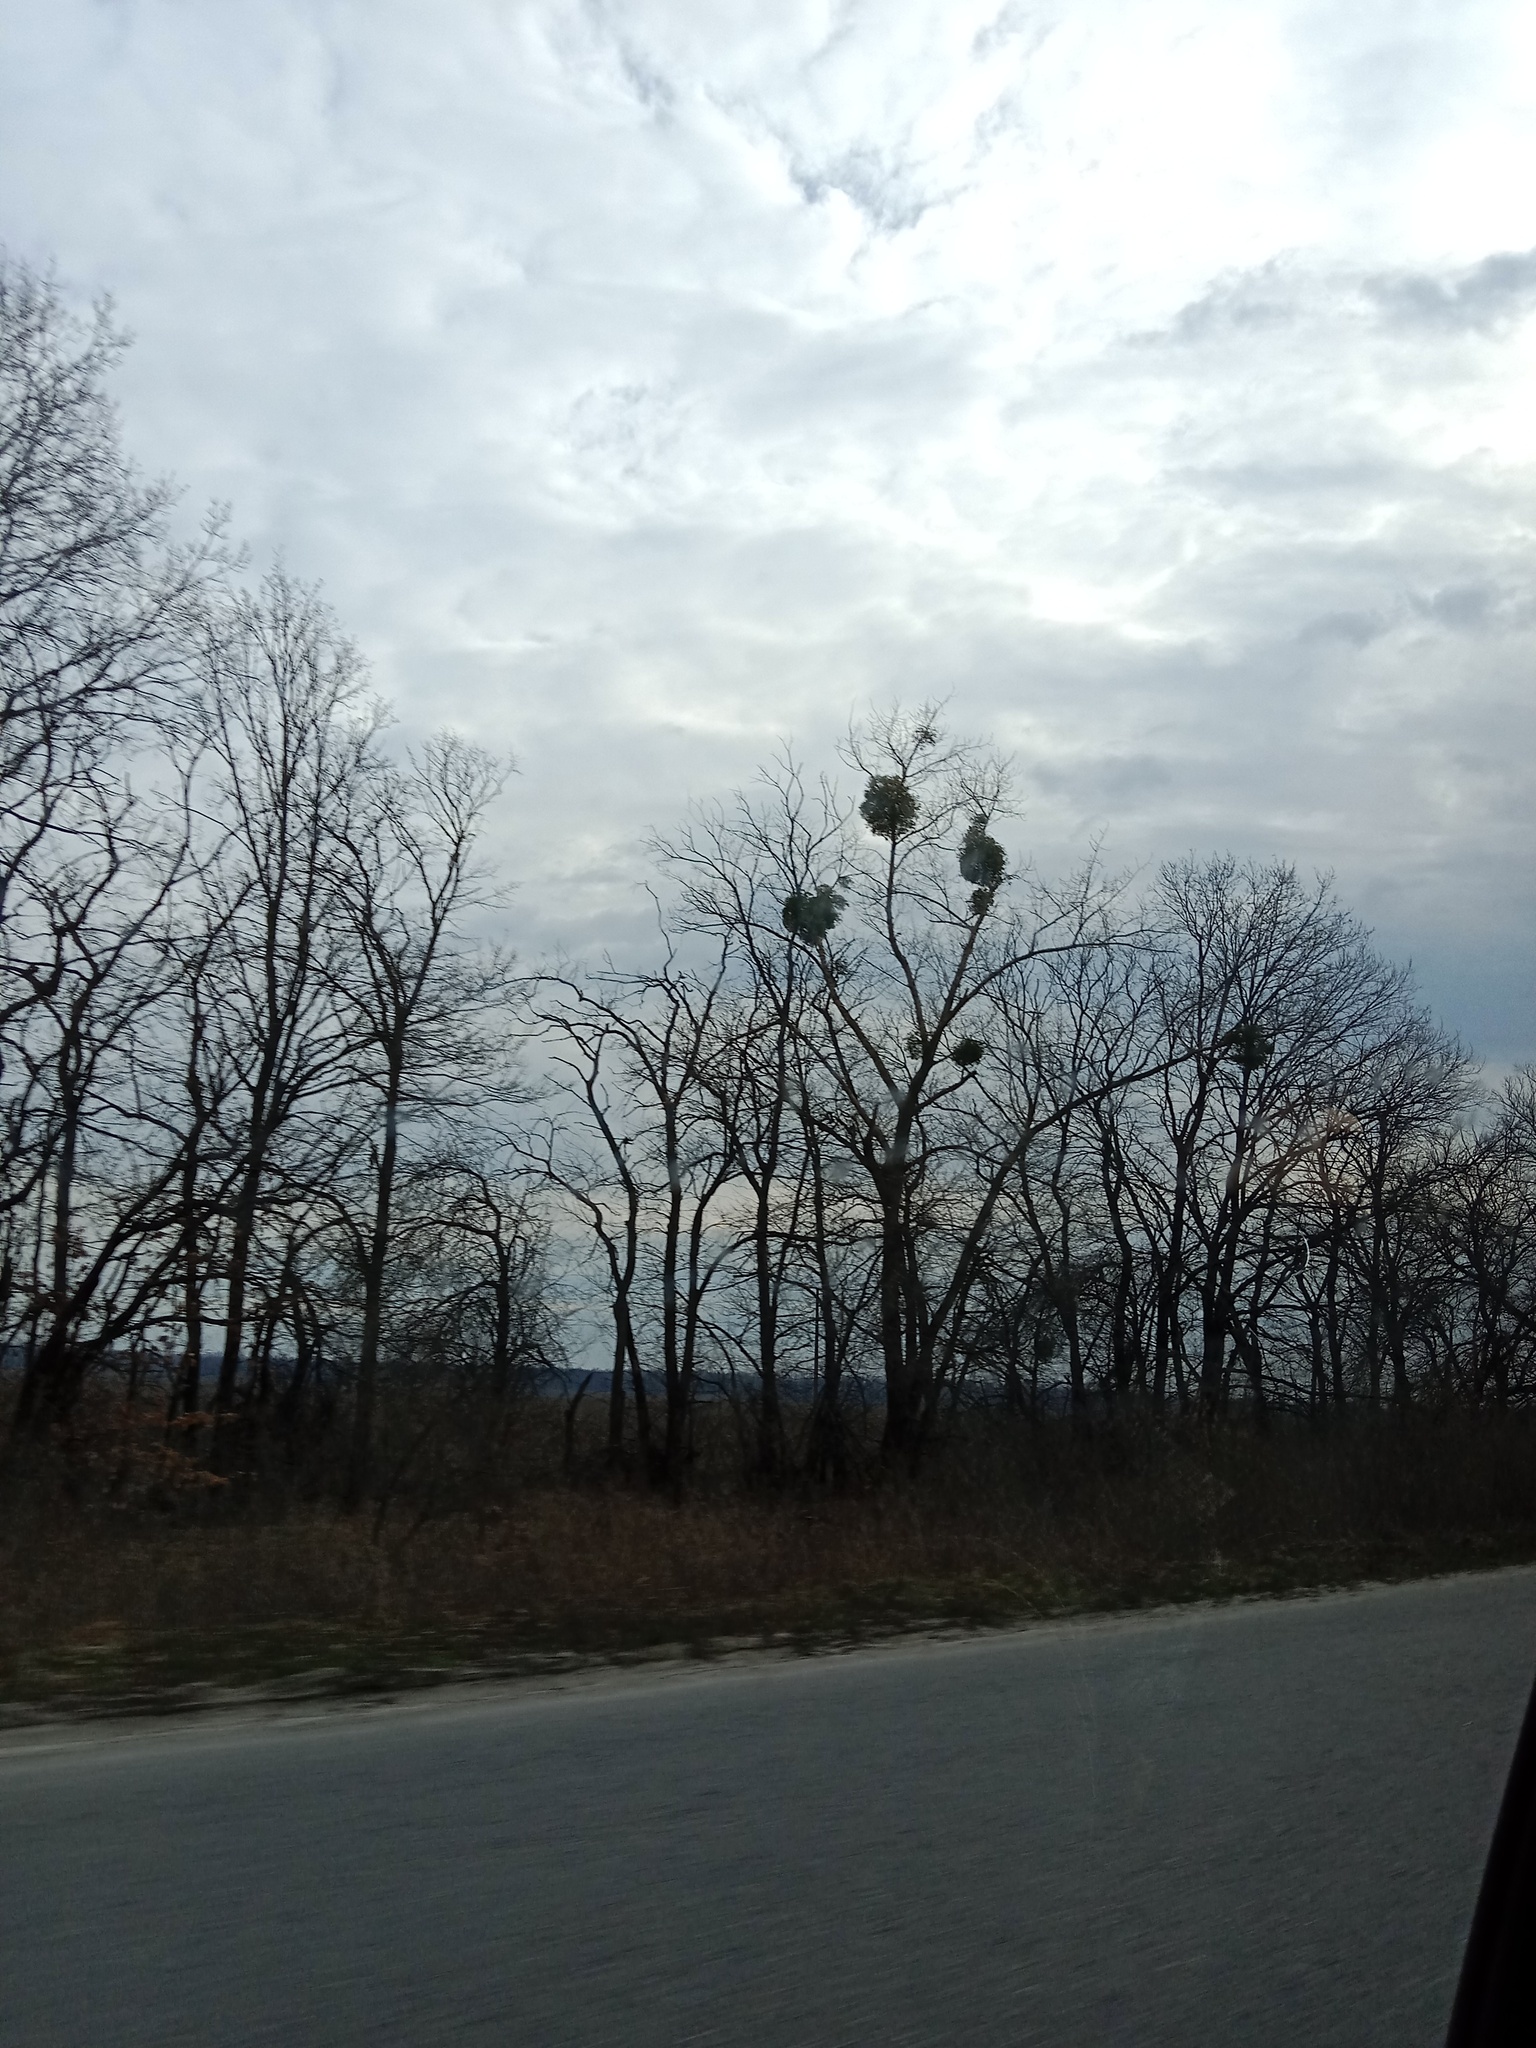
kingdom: Plantae
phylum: Tracheophyta
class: Magnoliopsida
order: Santalales
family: Viscaceae
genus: Viscum
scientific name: Viscum album
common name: Mistletoe
